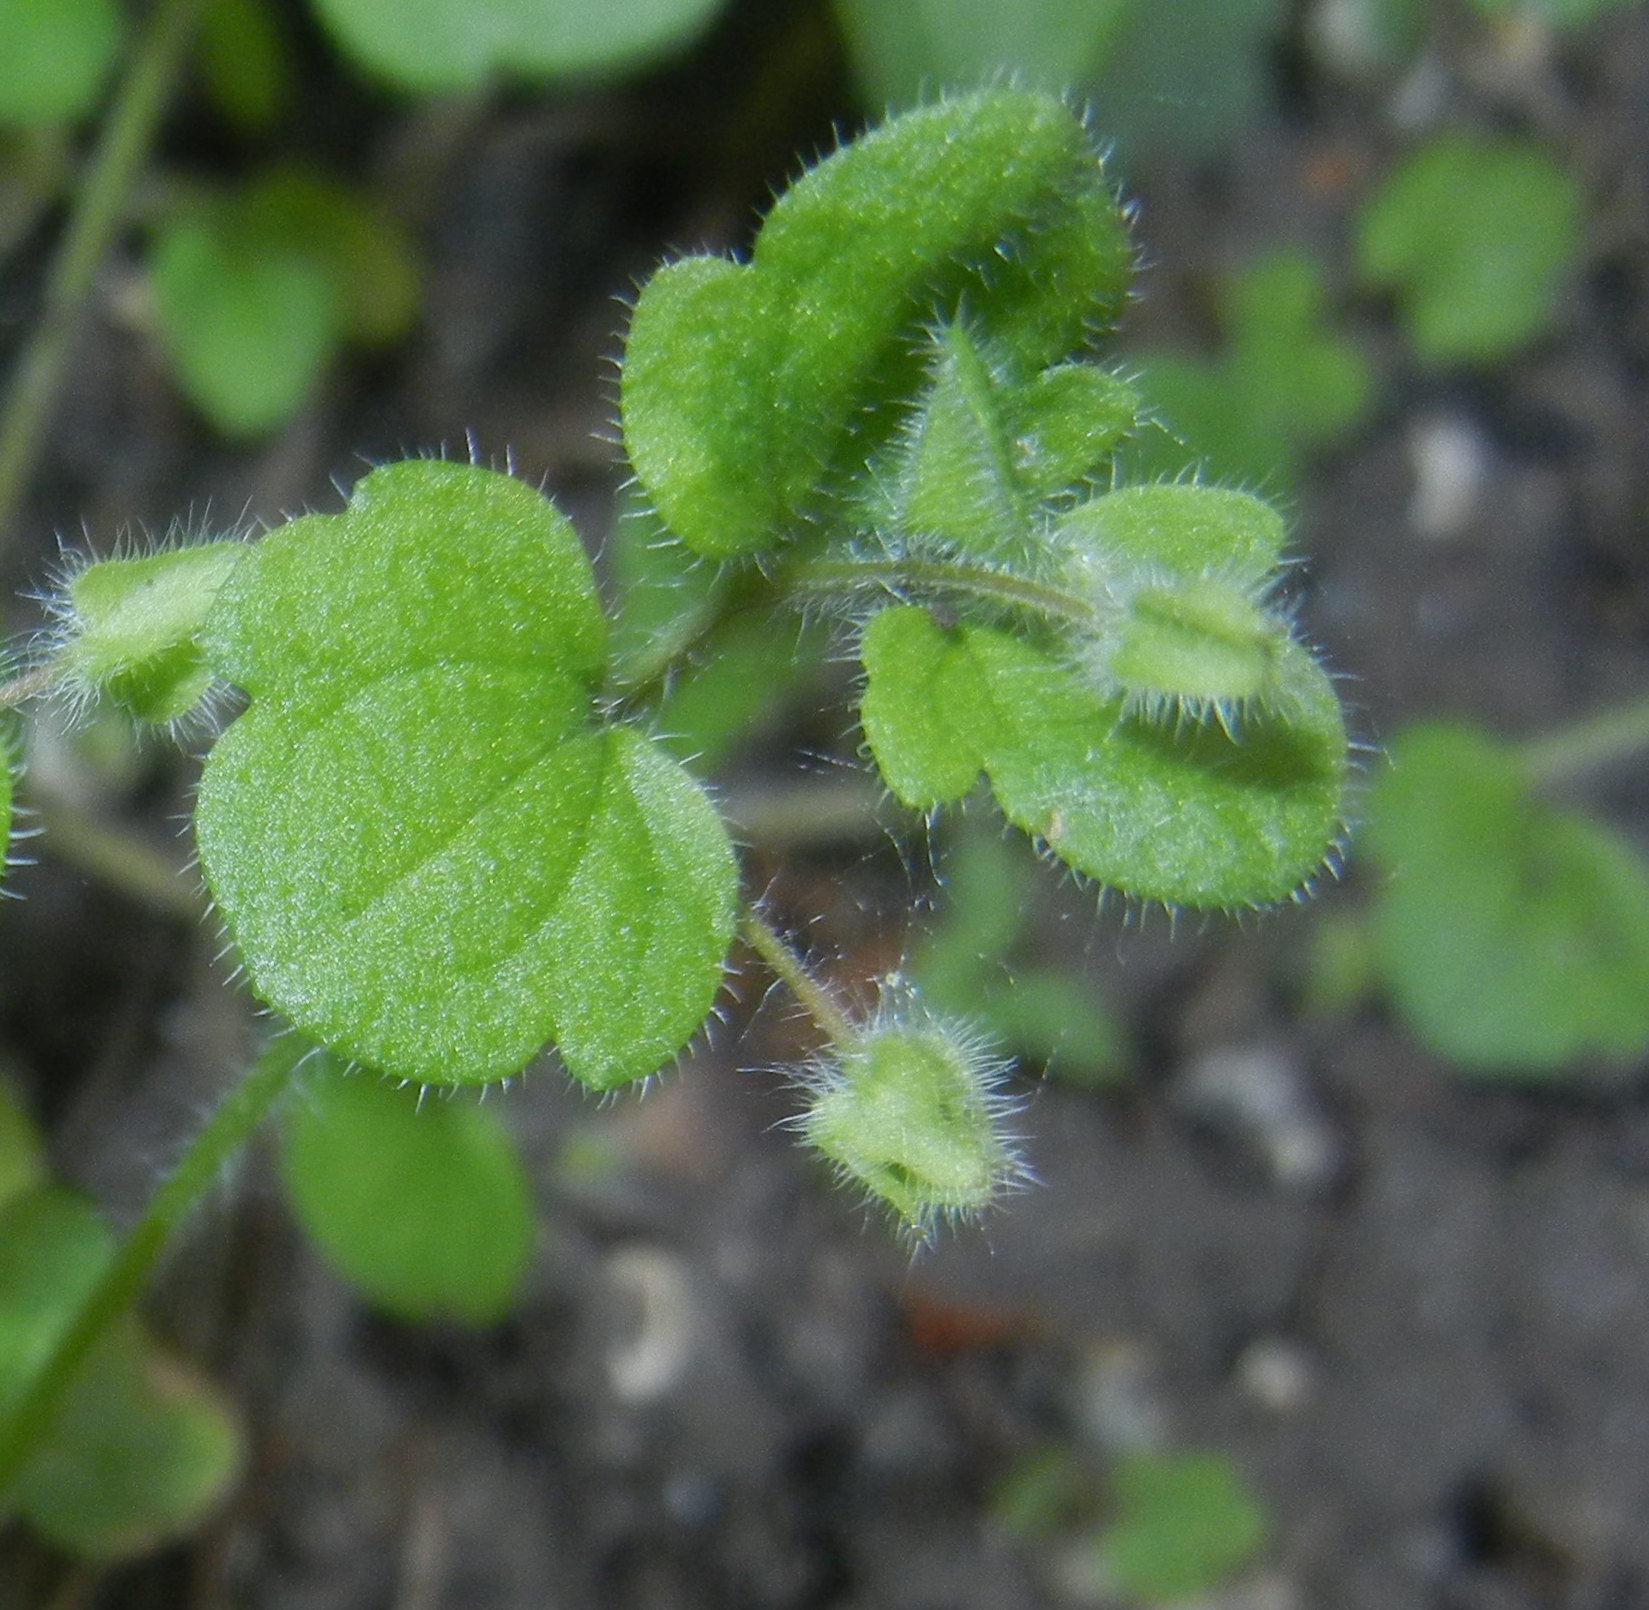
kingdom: Plantae
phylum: Tracheophyta
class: Magnoliopsida
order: Lamiales
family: Plantaginaceae
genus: Veronica
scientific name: Veronica hederifolia
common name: Ivy-leaved speedwell
